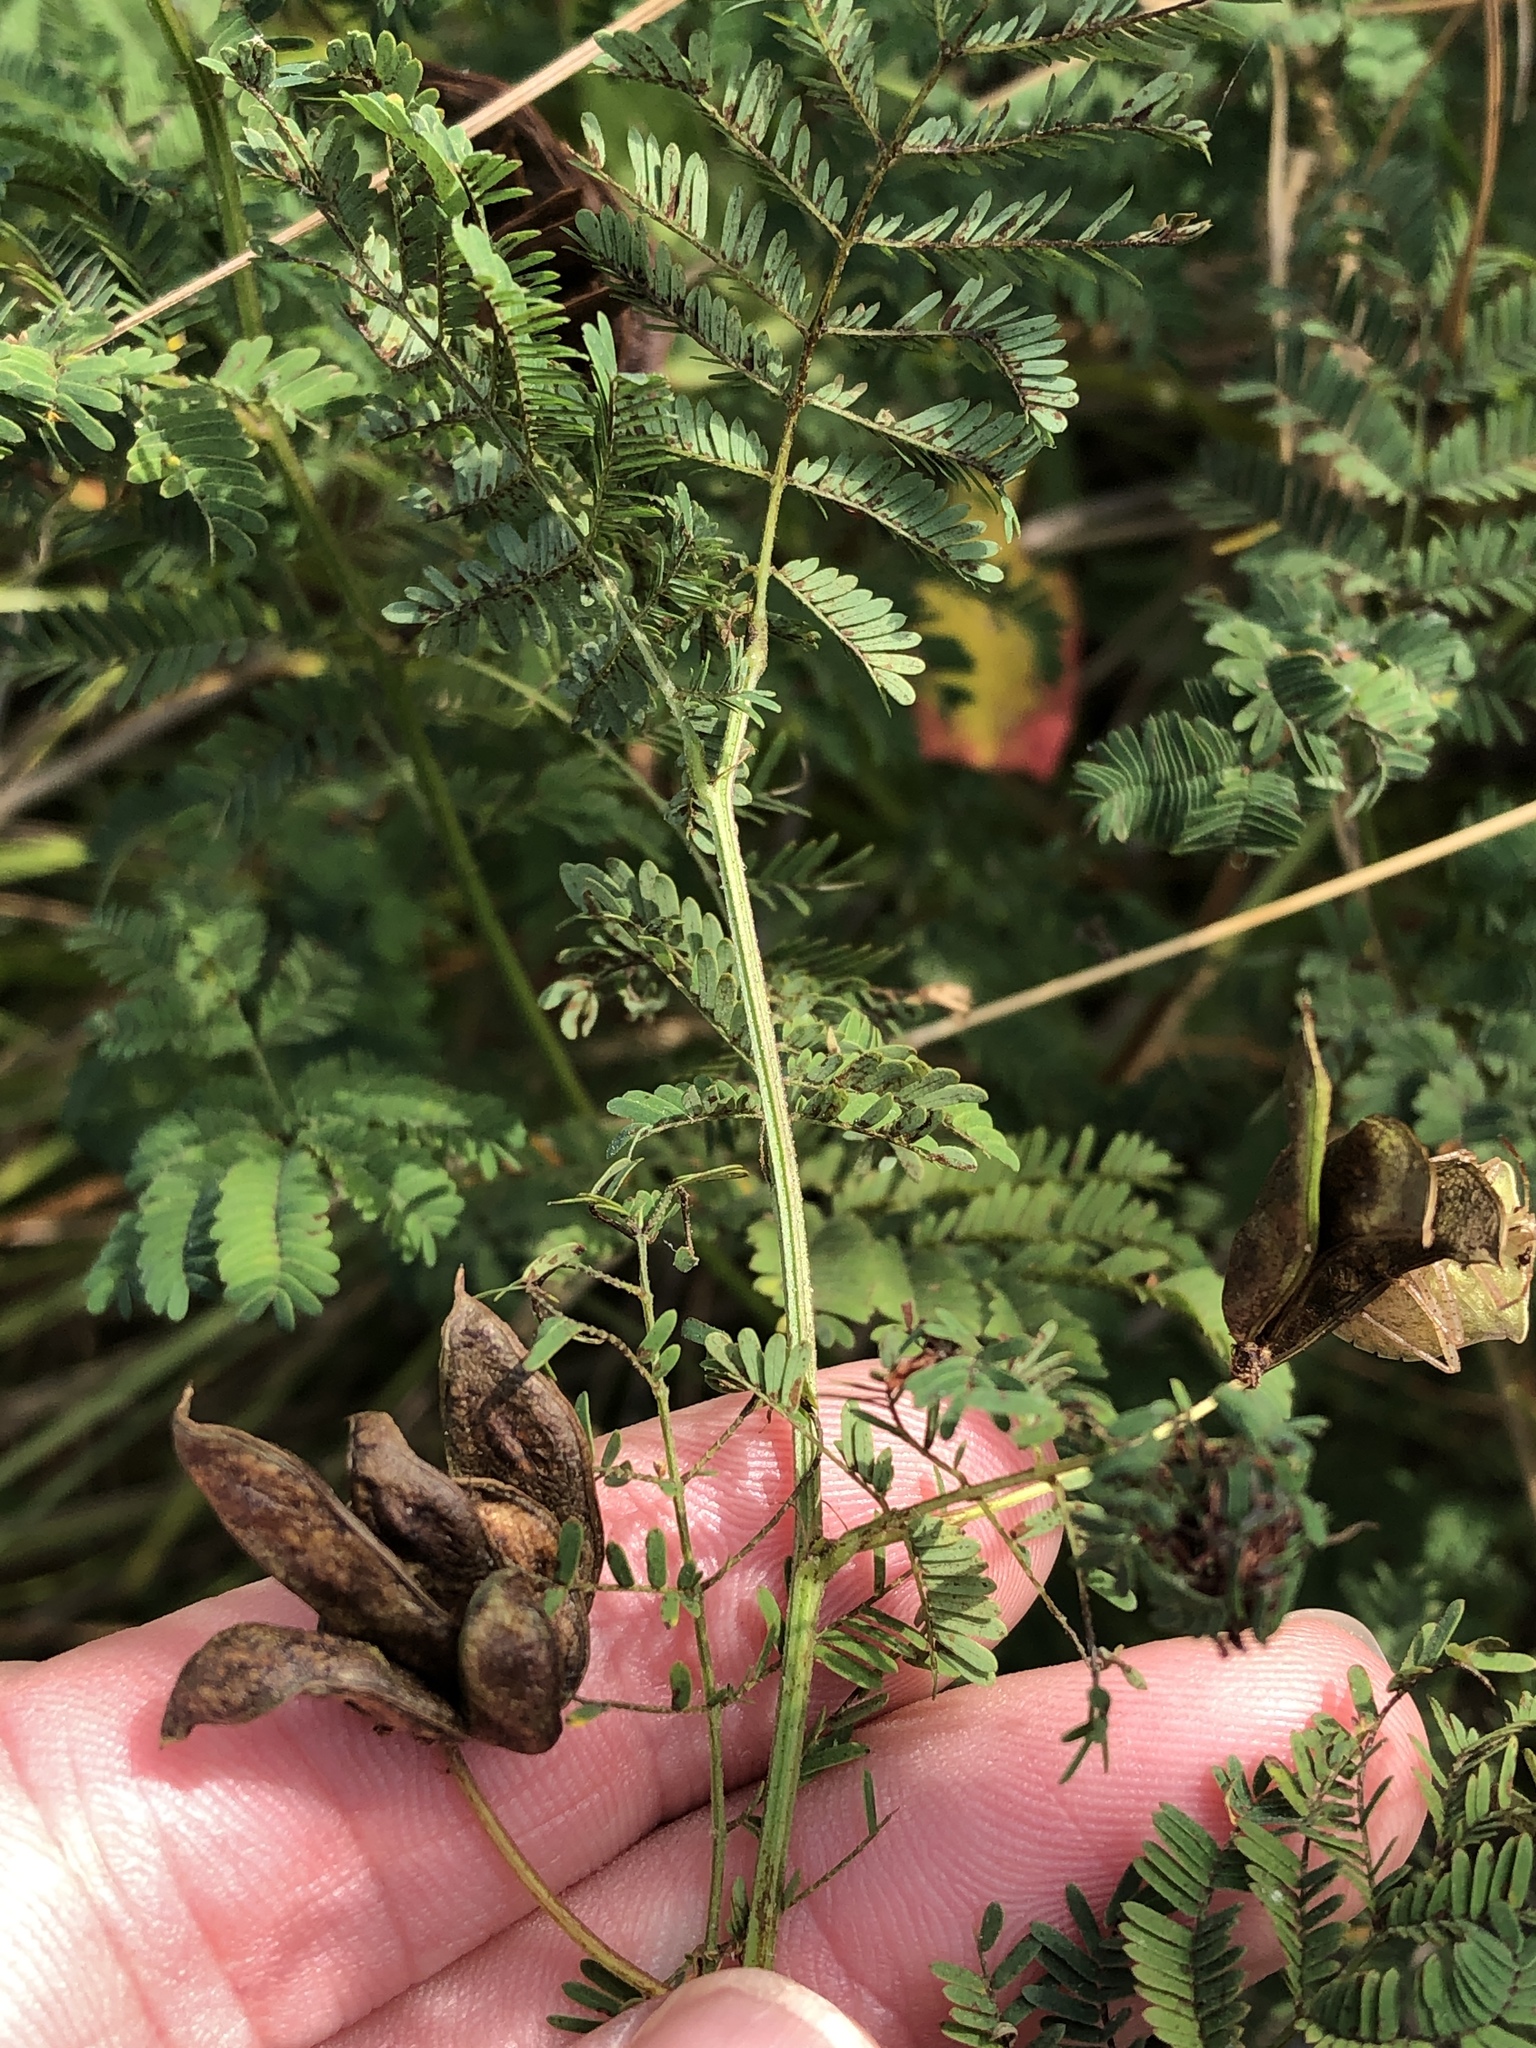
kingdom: Plantae
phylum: Tracheophyta
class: Magnoliopsida
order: Fabales
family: Fabaceae
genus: Desmanthus
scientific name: Desmanthus illinoensis
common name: Illinois bundle-flower
